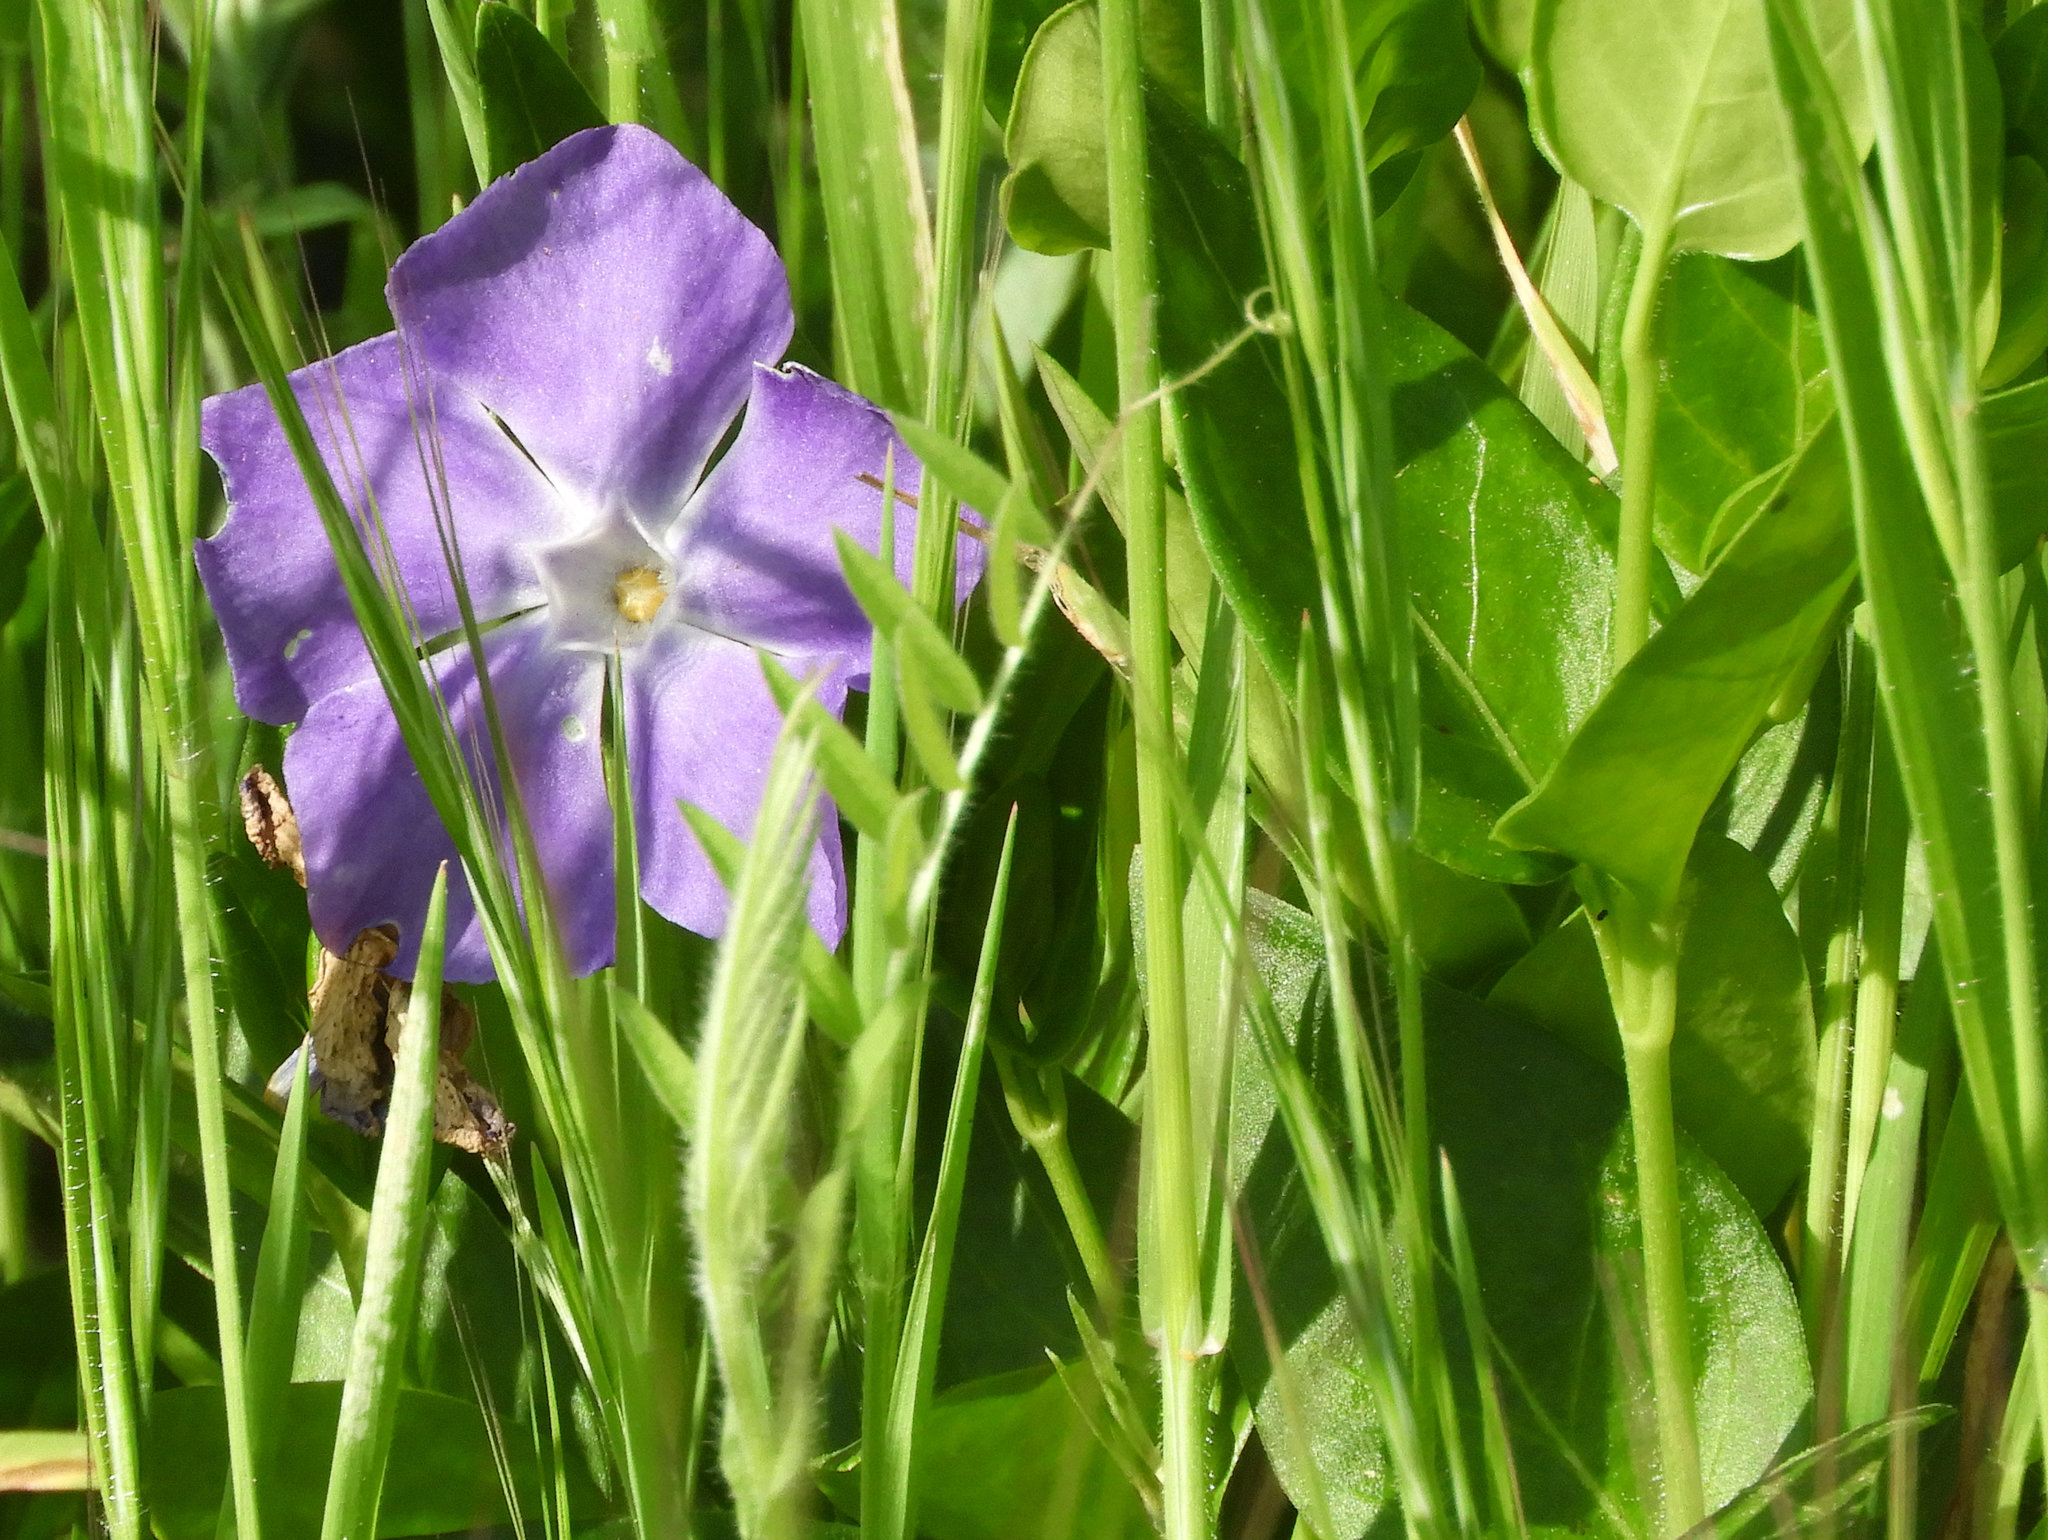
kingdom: Plantae
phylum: Tracheophyta
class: Magnoliopsida
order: Gentianales
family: Apocynaceae
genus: Vinca
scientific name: Vinca major
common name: Greater periwinkle
